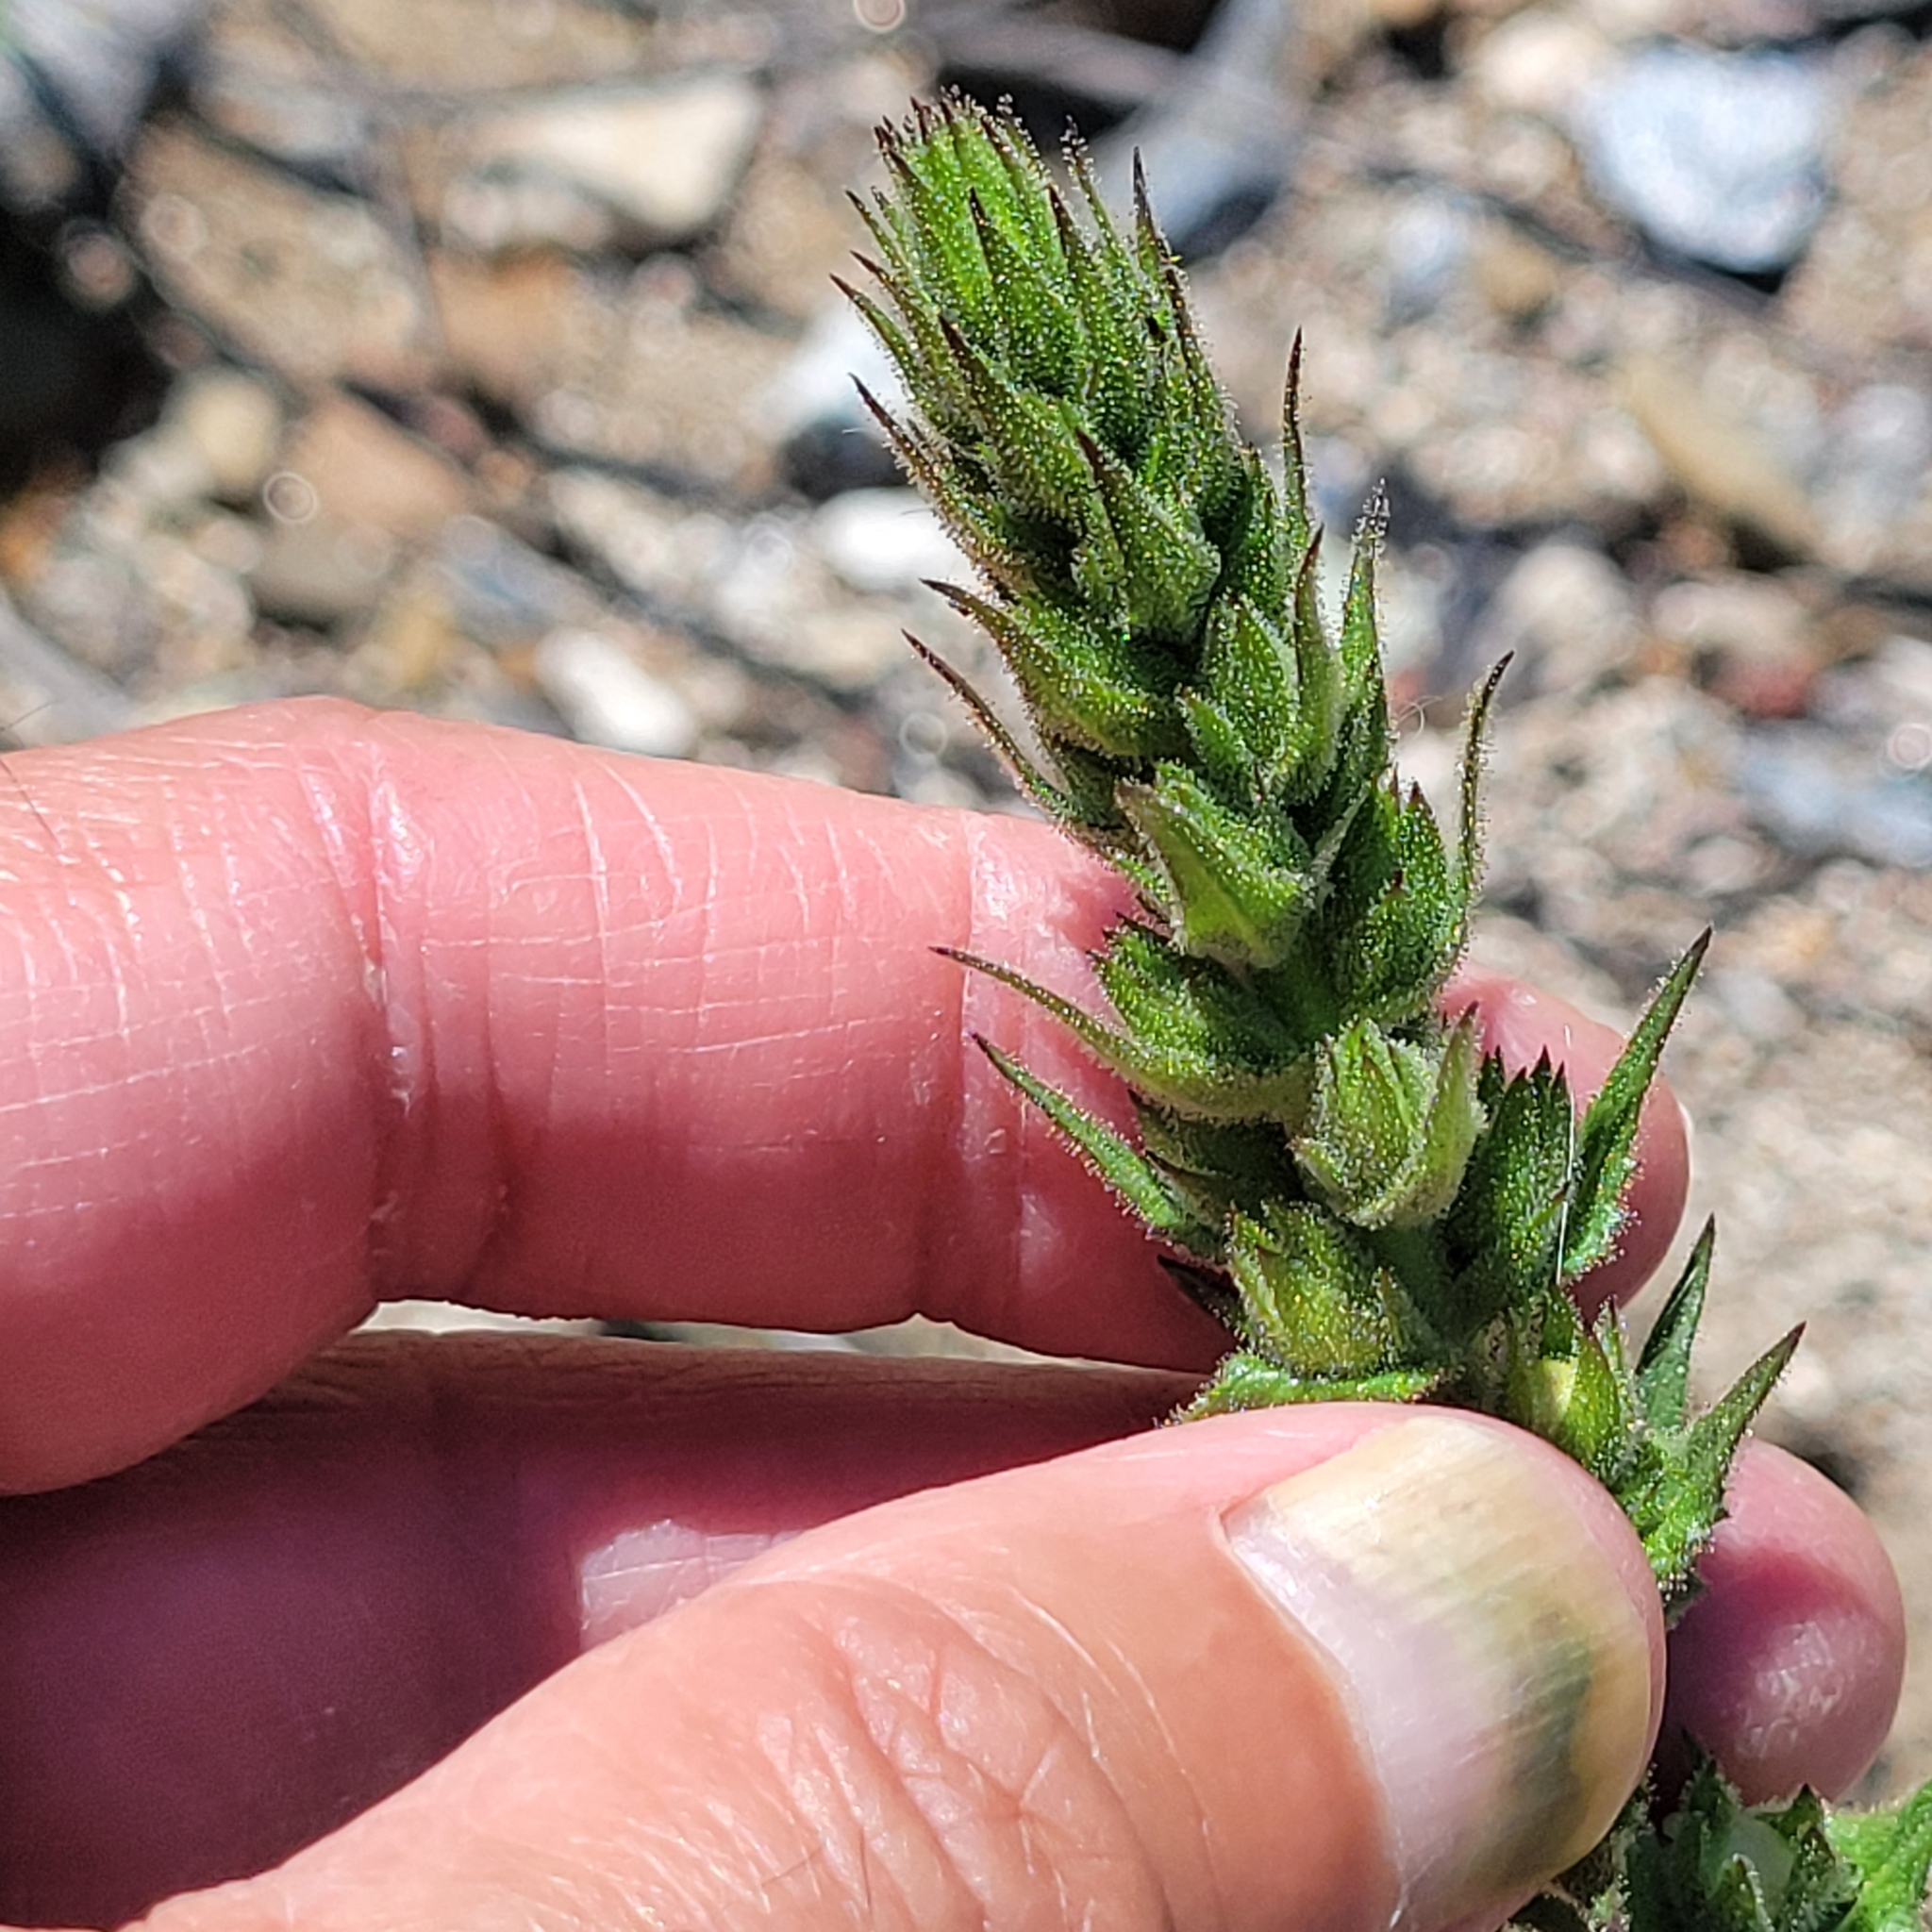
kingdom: Plantae
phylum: Tracheophyta
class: Magnoliopsida
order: Lamiales
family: Scrophulariaceae
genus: Verbascum
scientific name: Verbascum virgatum
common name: Twiggy mullein
